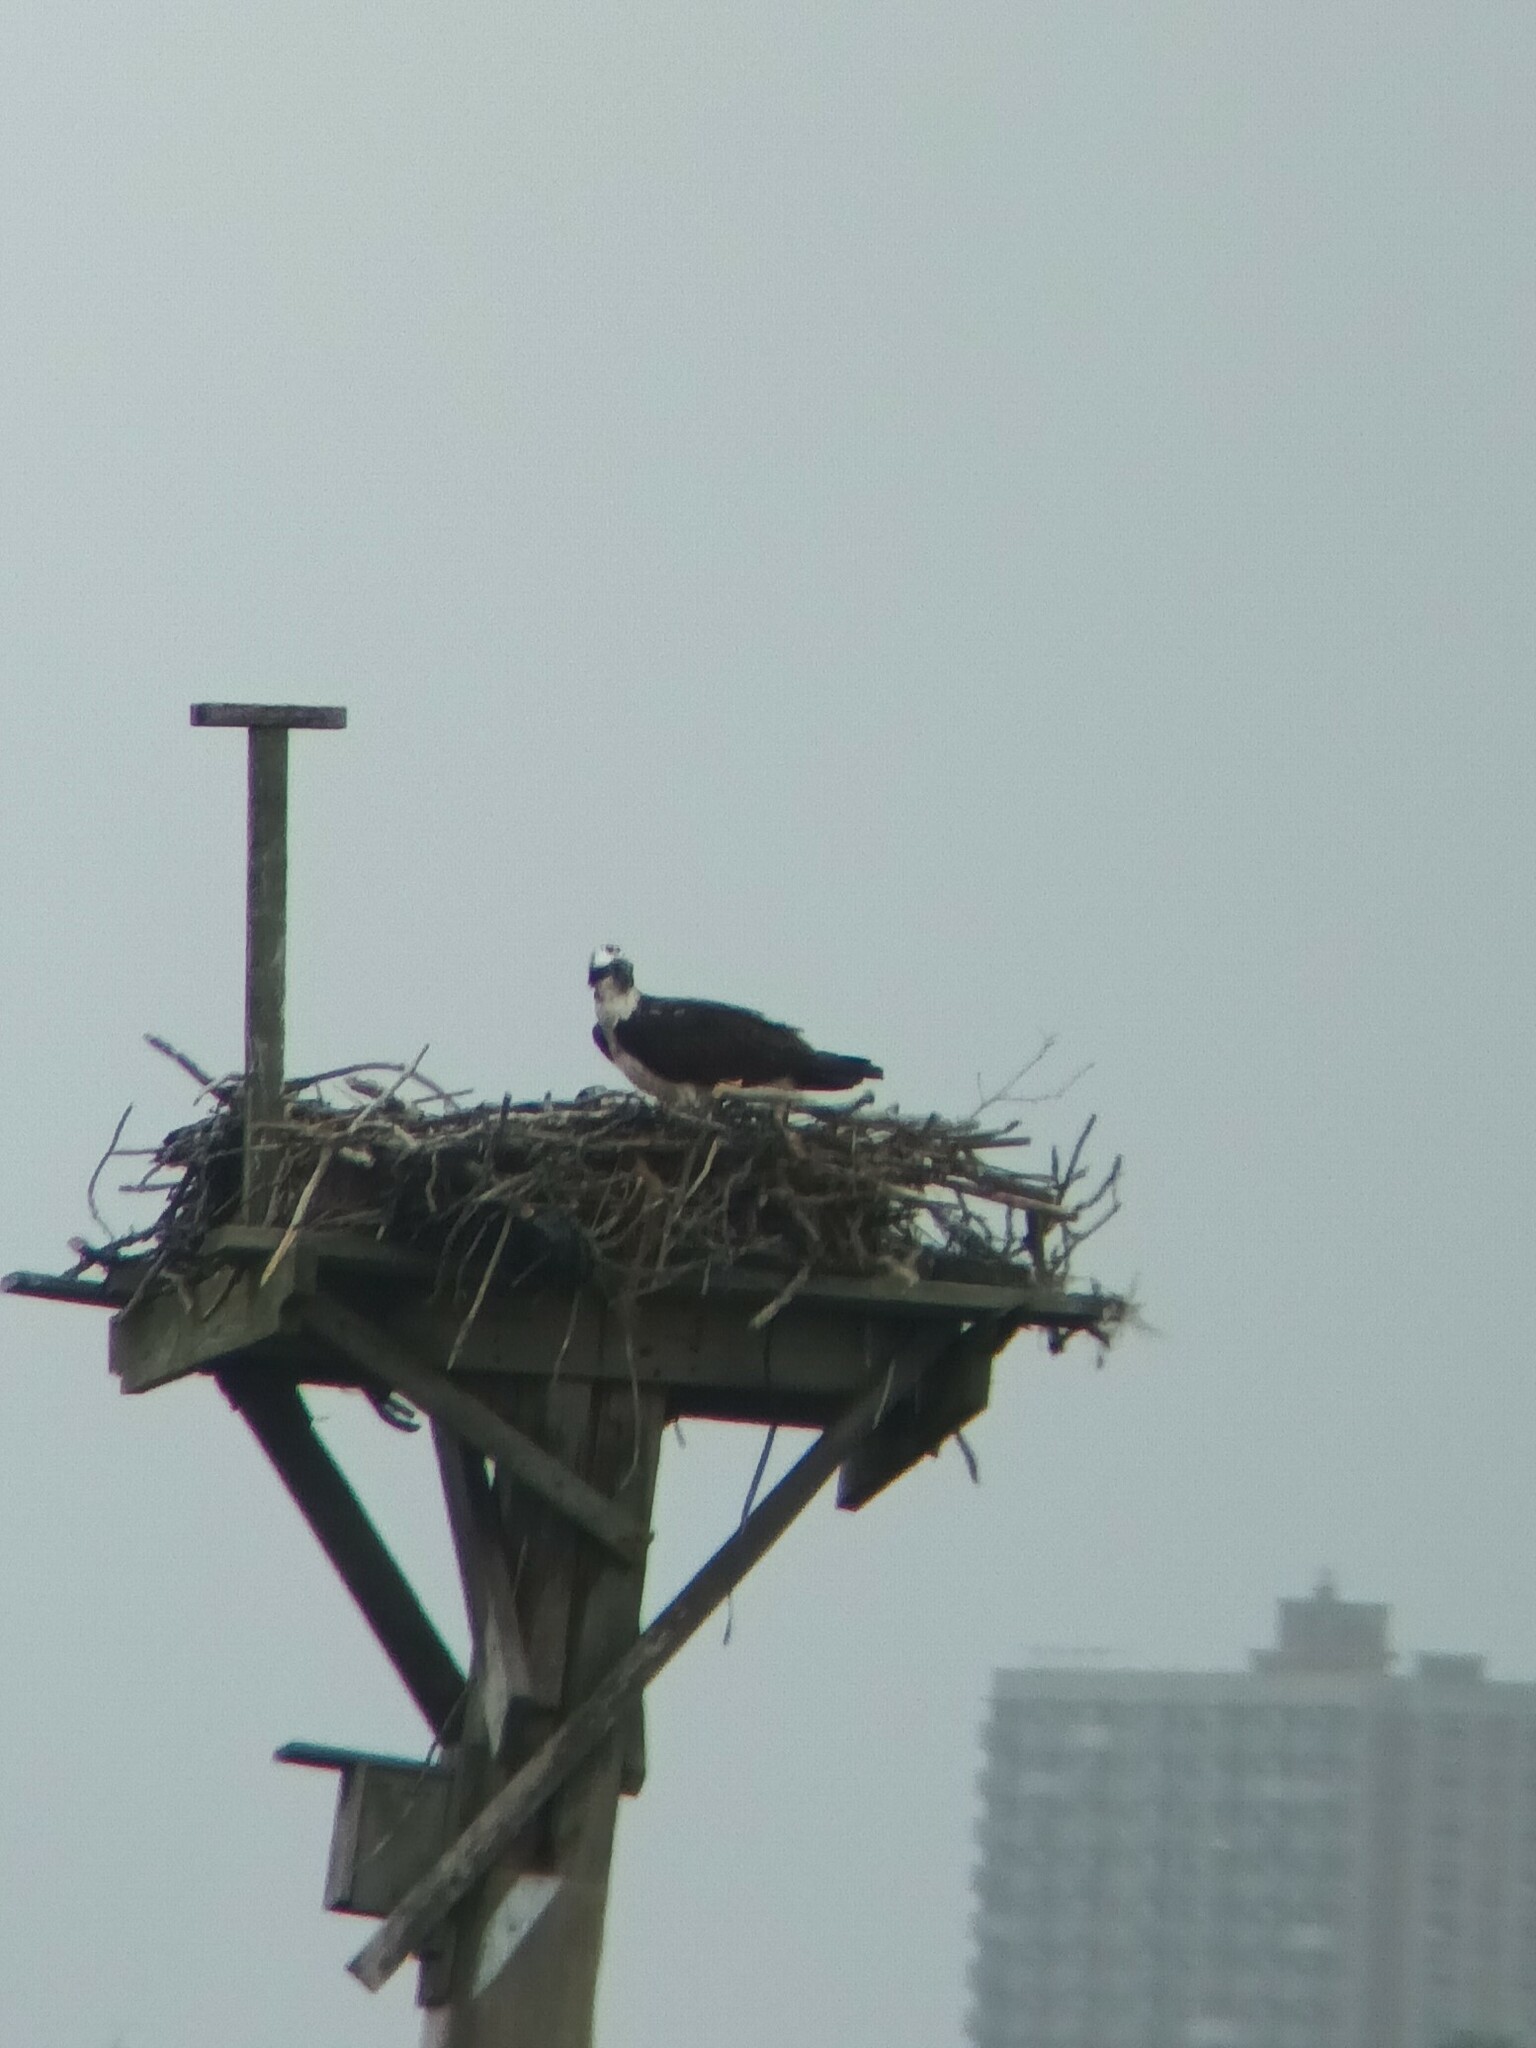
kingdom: Animalia
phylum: Chordata
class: Aves
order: Accipitriformes
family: Pandionidae
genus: Pandion
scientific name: Pandion haliaetus
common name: Osprey
